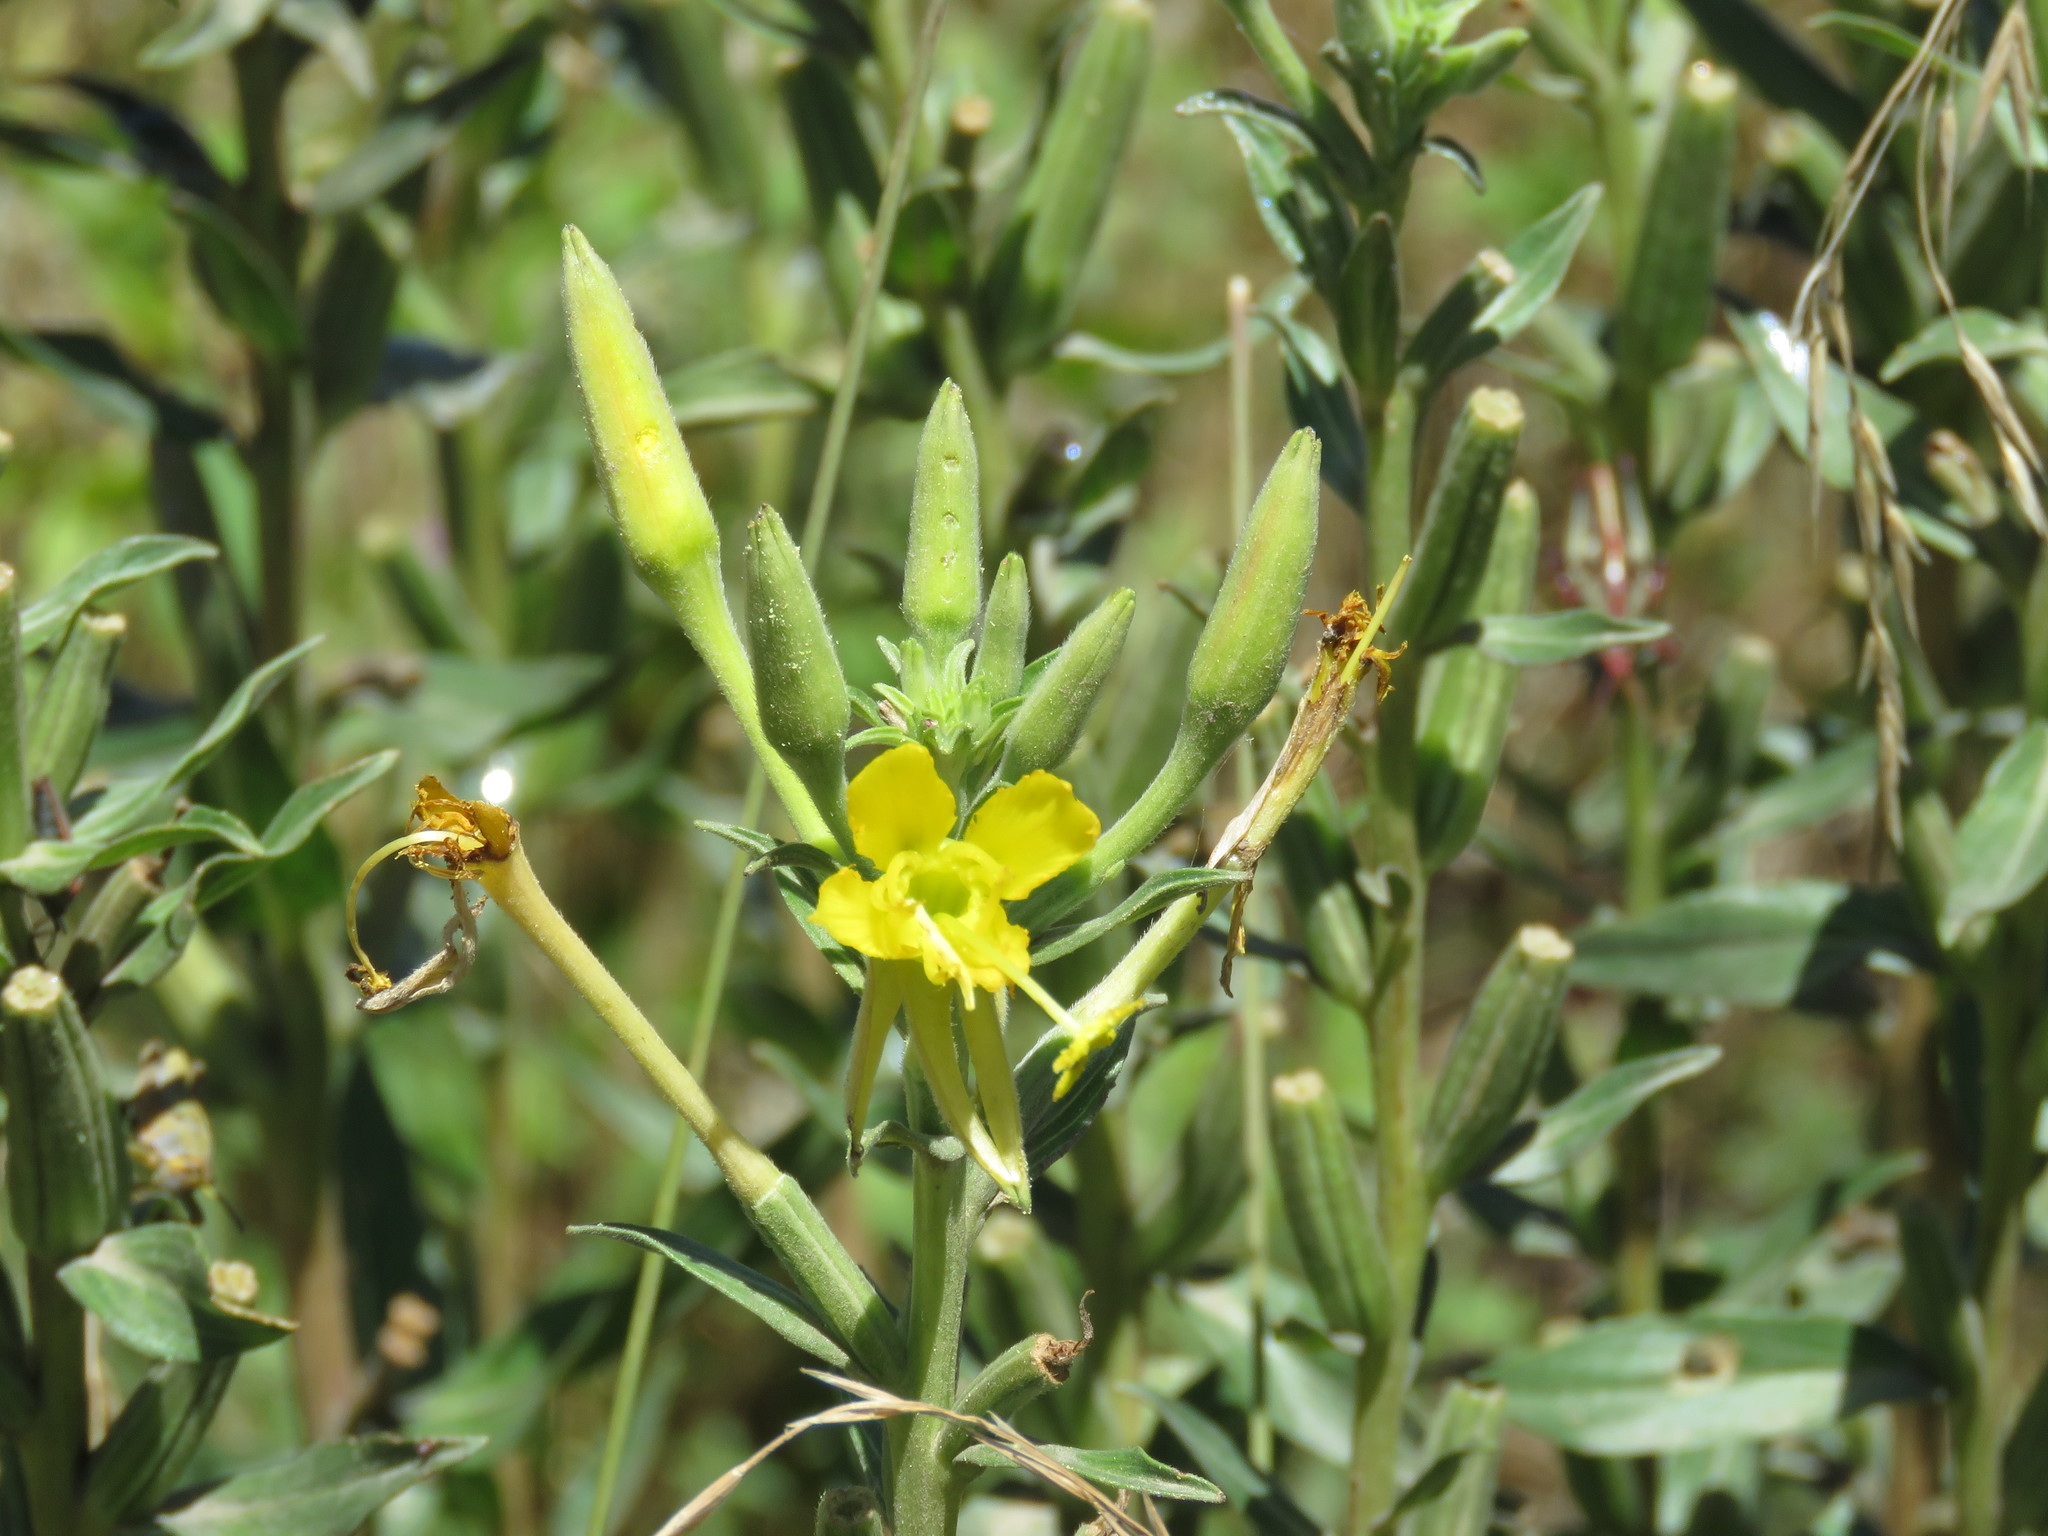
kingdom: Plantae
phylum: Tracheophyta
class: Magnoliopsida
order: Myrtales
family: Onagraceae
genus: Oenothera
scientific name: Oenothera elata
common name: Hooker's evening-primrose
